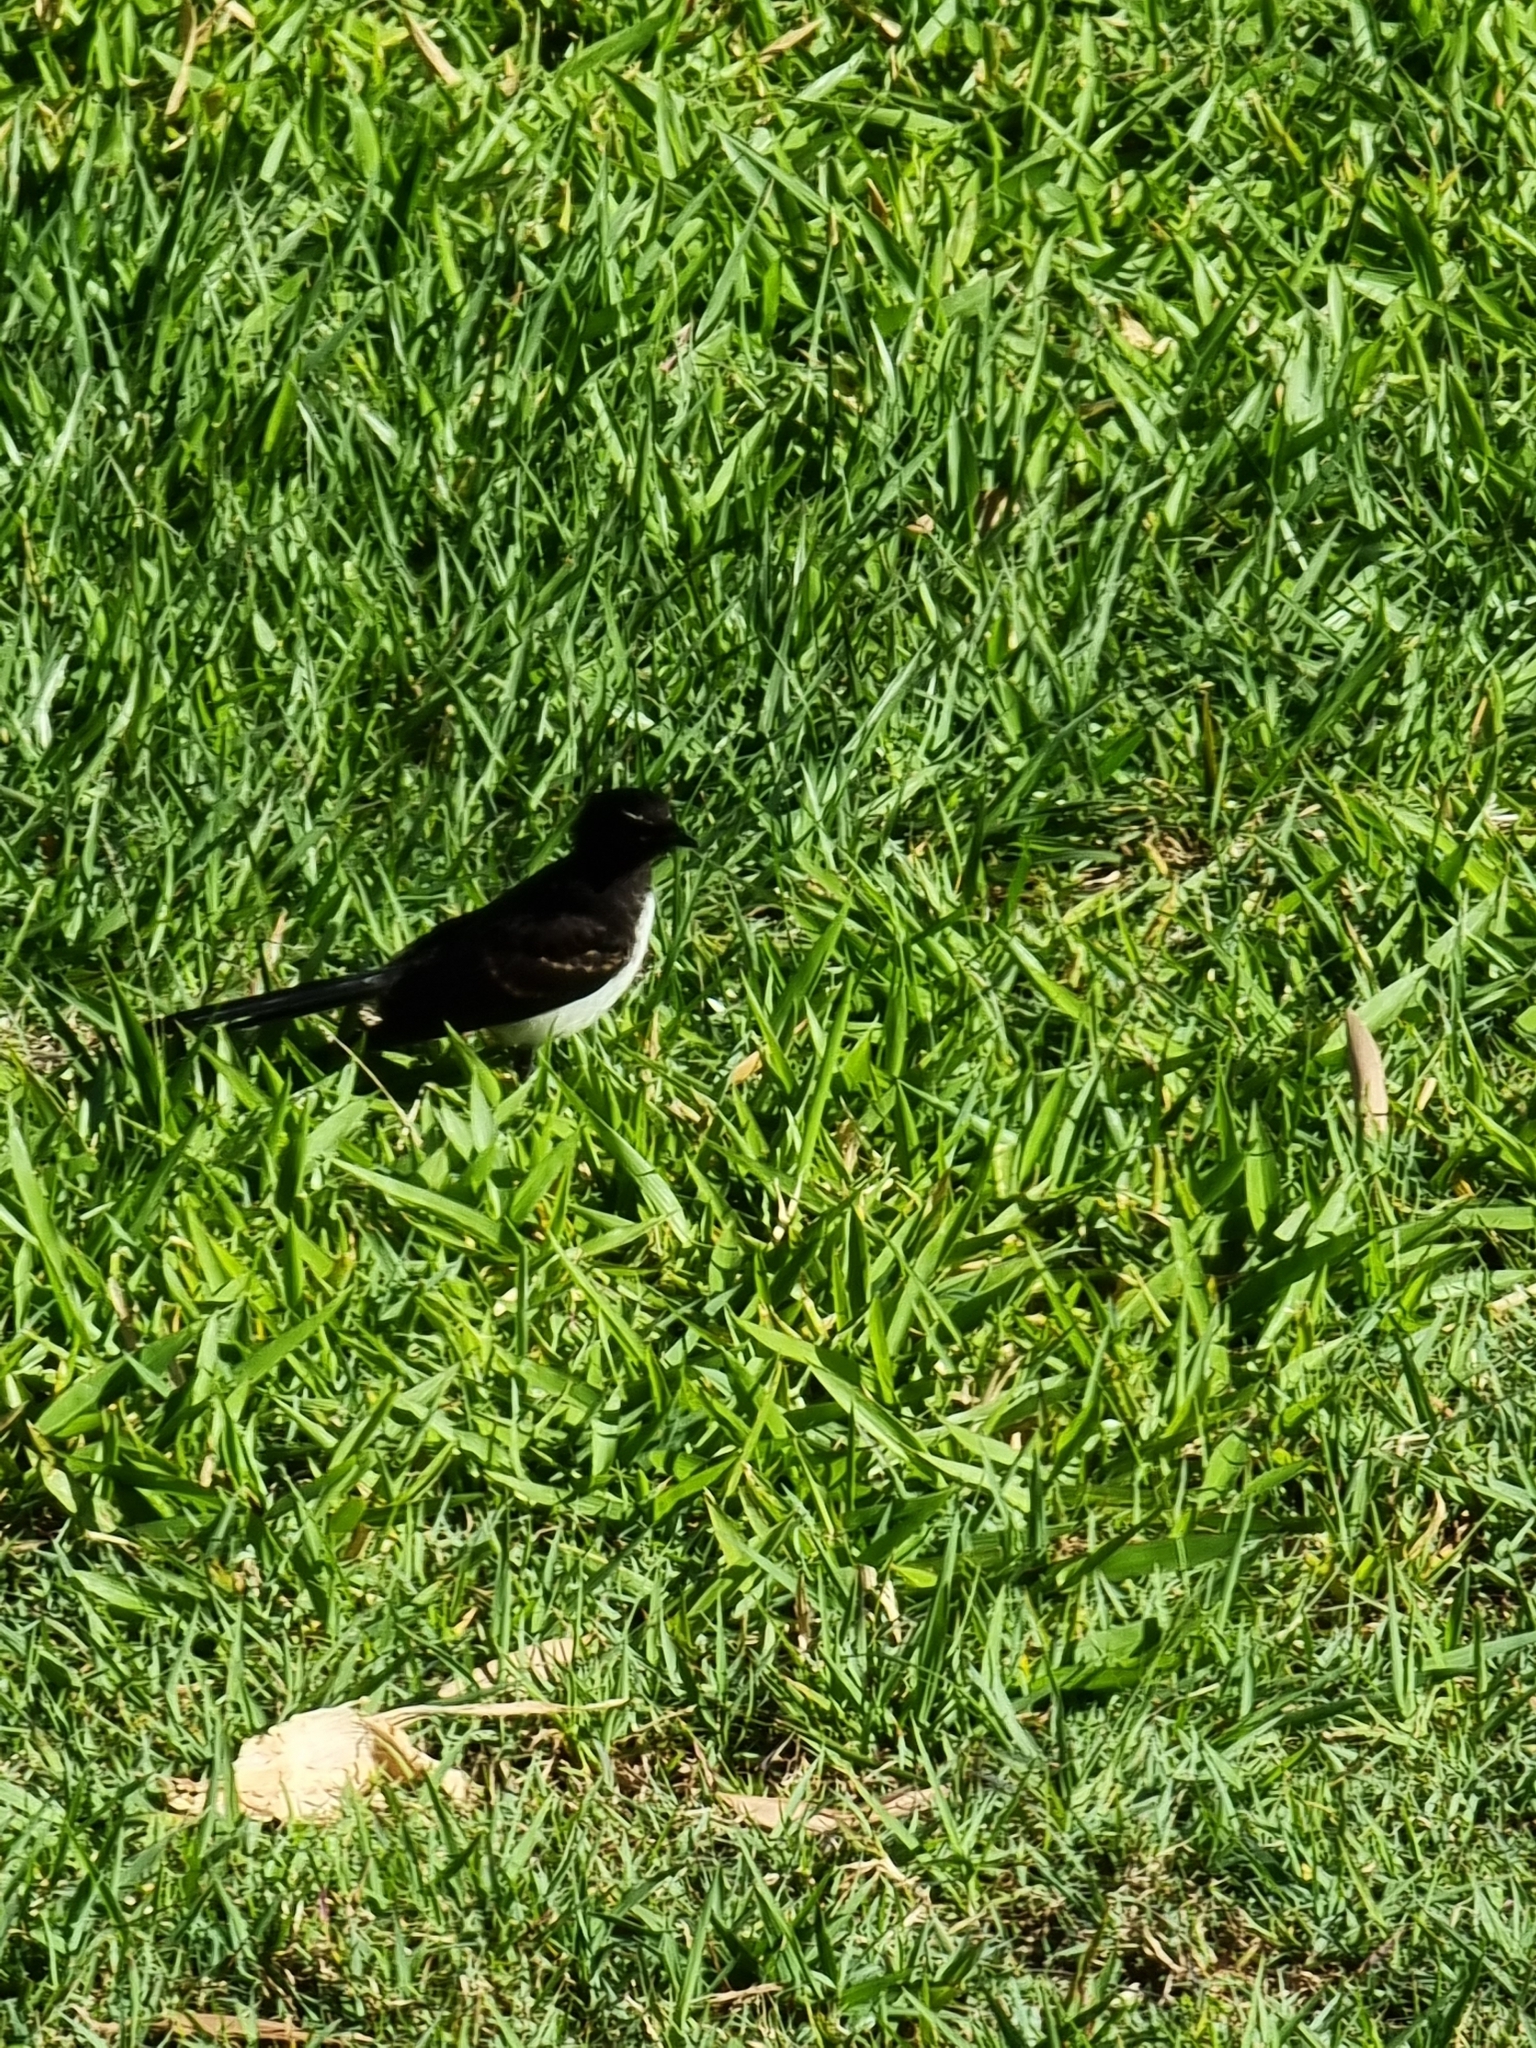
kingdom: Animalia
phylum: Chordata
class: Aves
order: Passeriformes
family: Rhipiduridae
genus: Rhipidura
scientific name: Rhipidura leucophrys
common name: Willie wagtail
